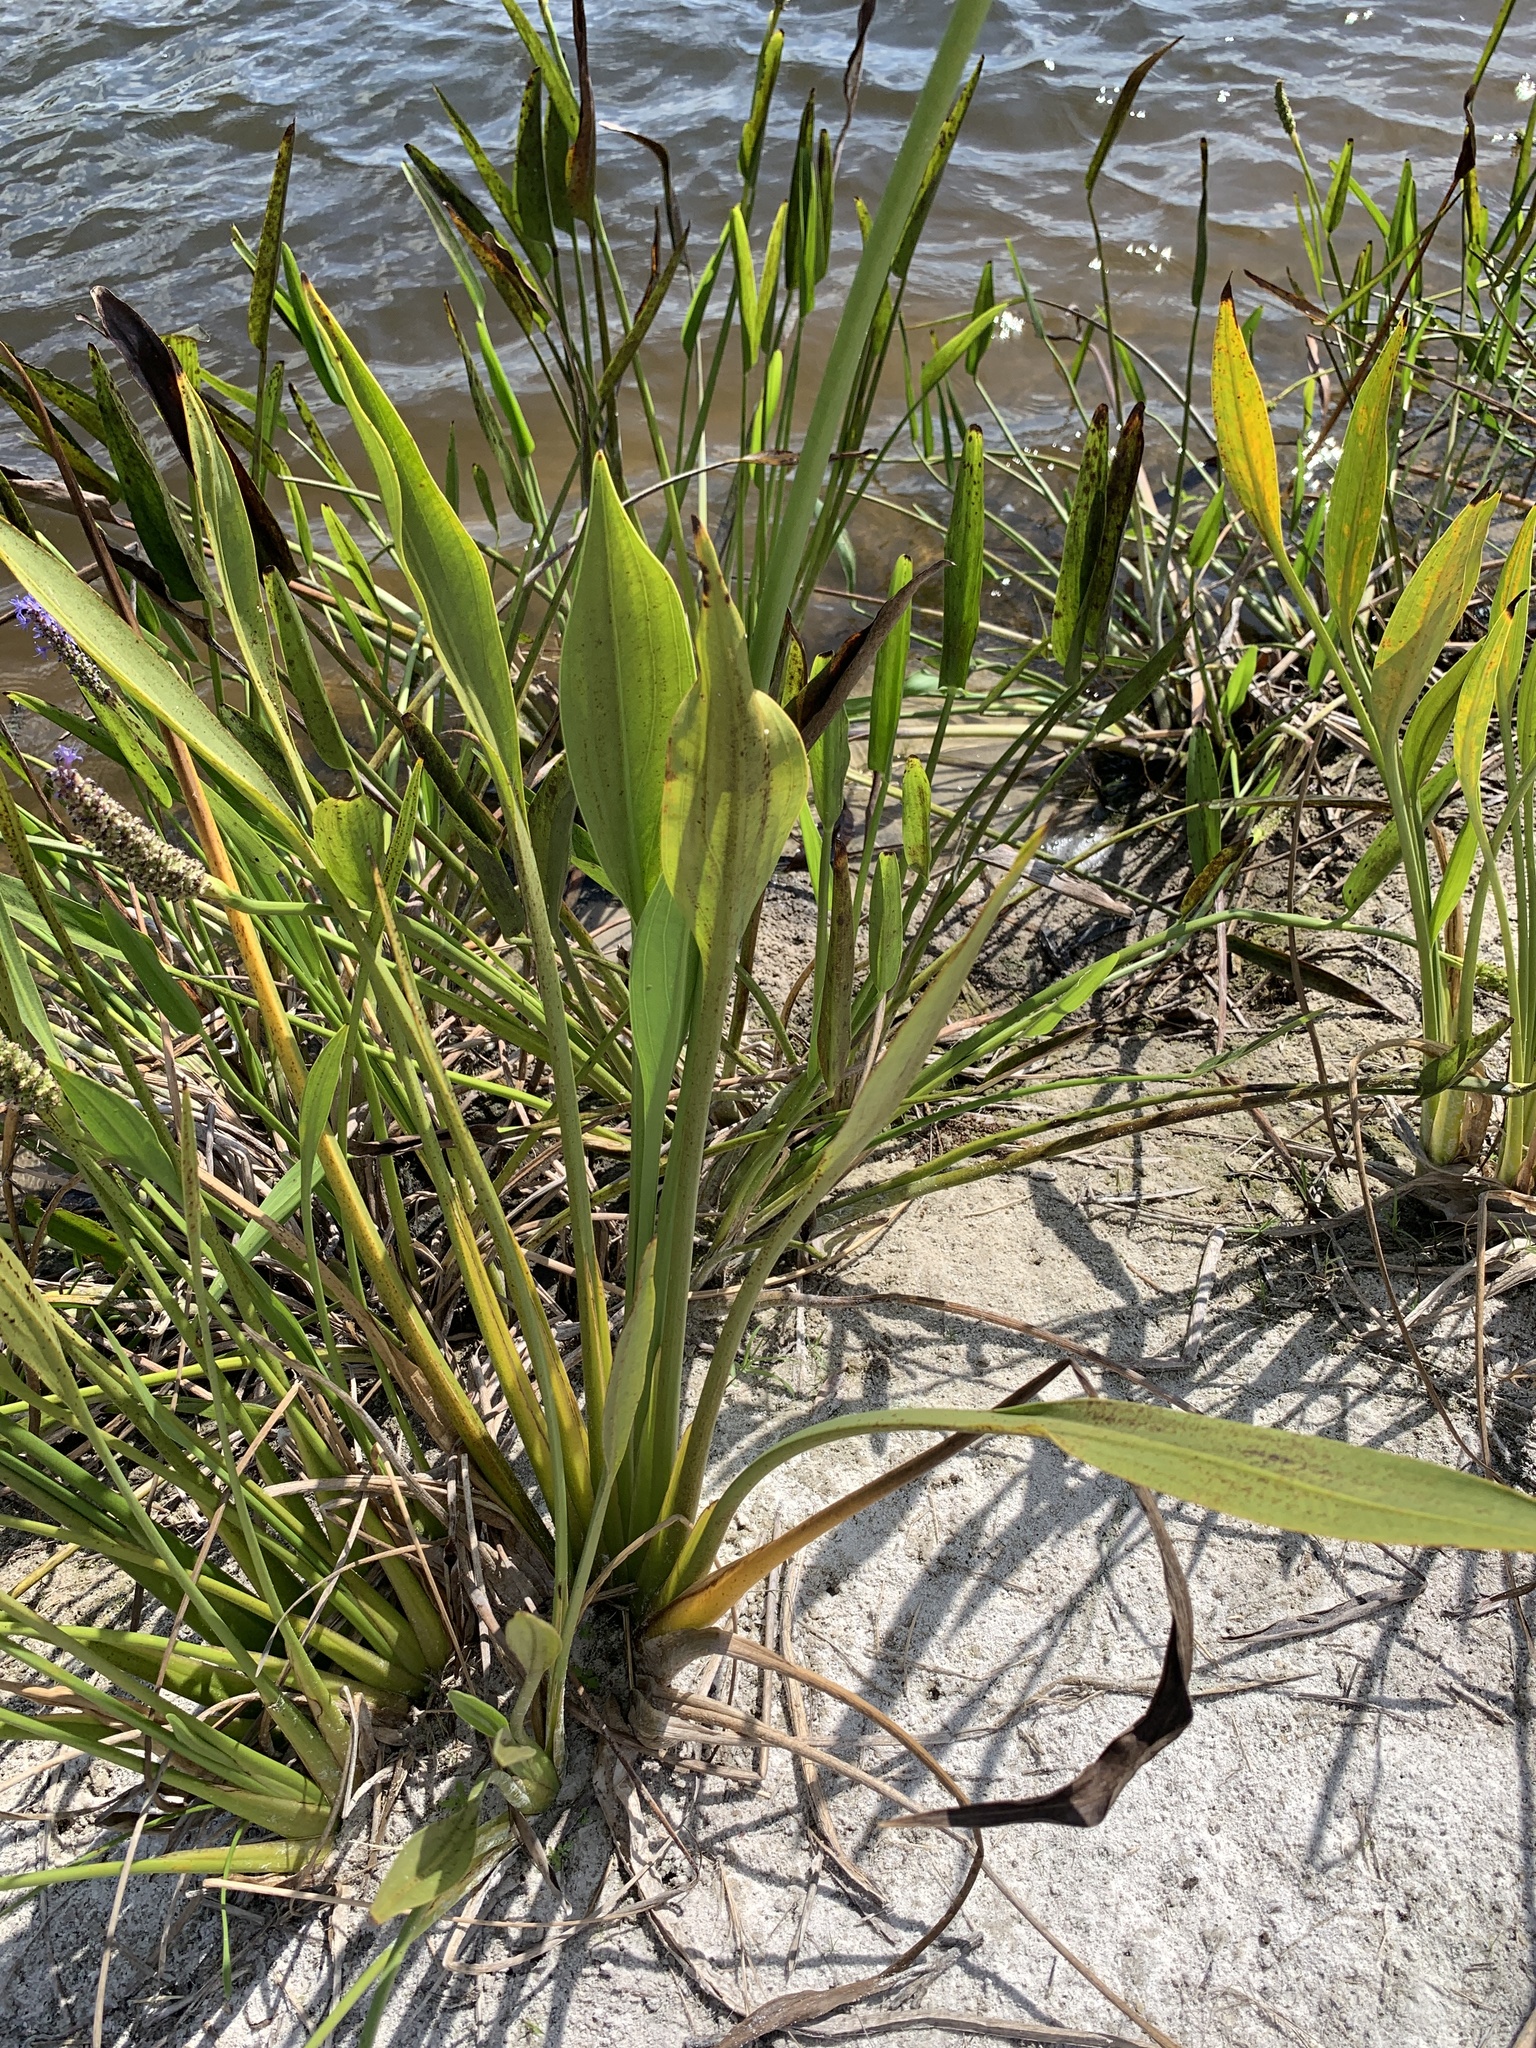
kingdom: Plantae
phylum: Tracheophyta
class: Liliopsida
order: Alismatales
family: Alismataceae
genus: Sagittaria
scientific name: Sagittaria lancifolia
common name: Lance-leaf arrowhead
